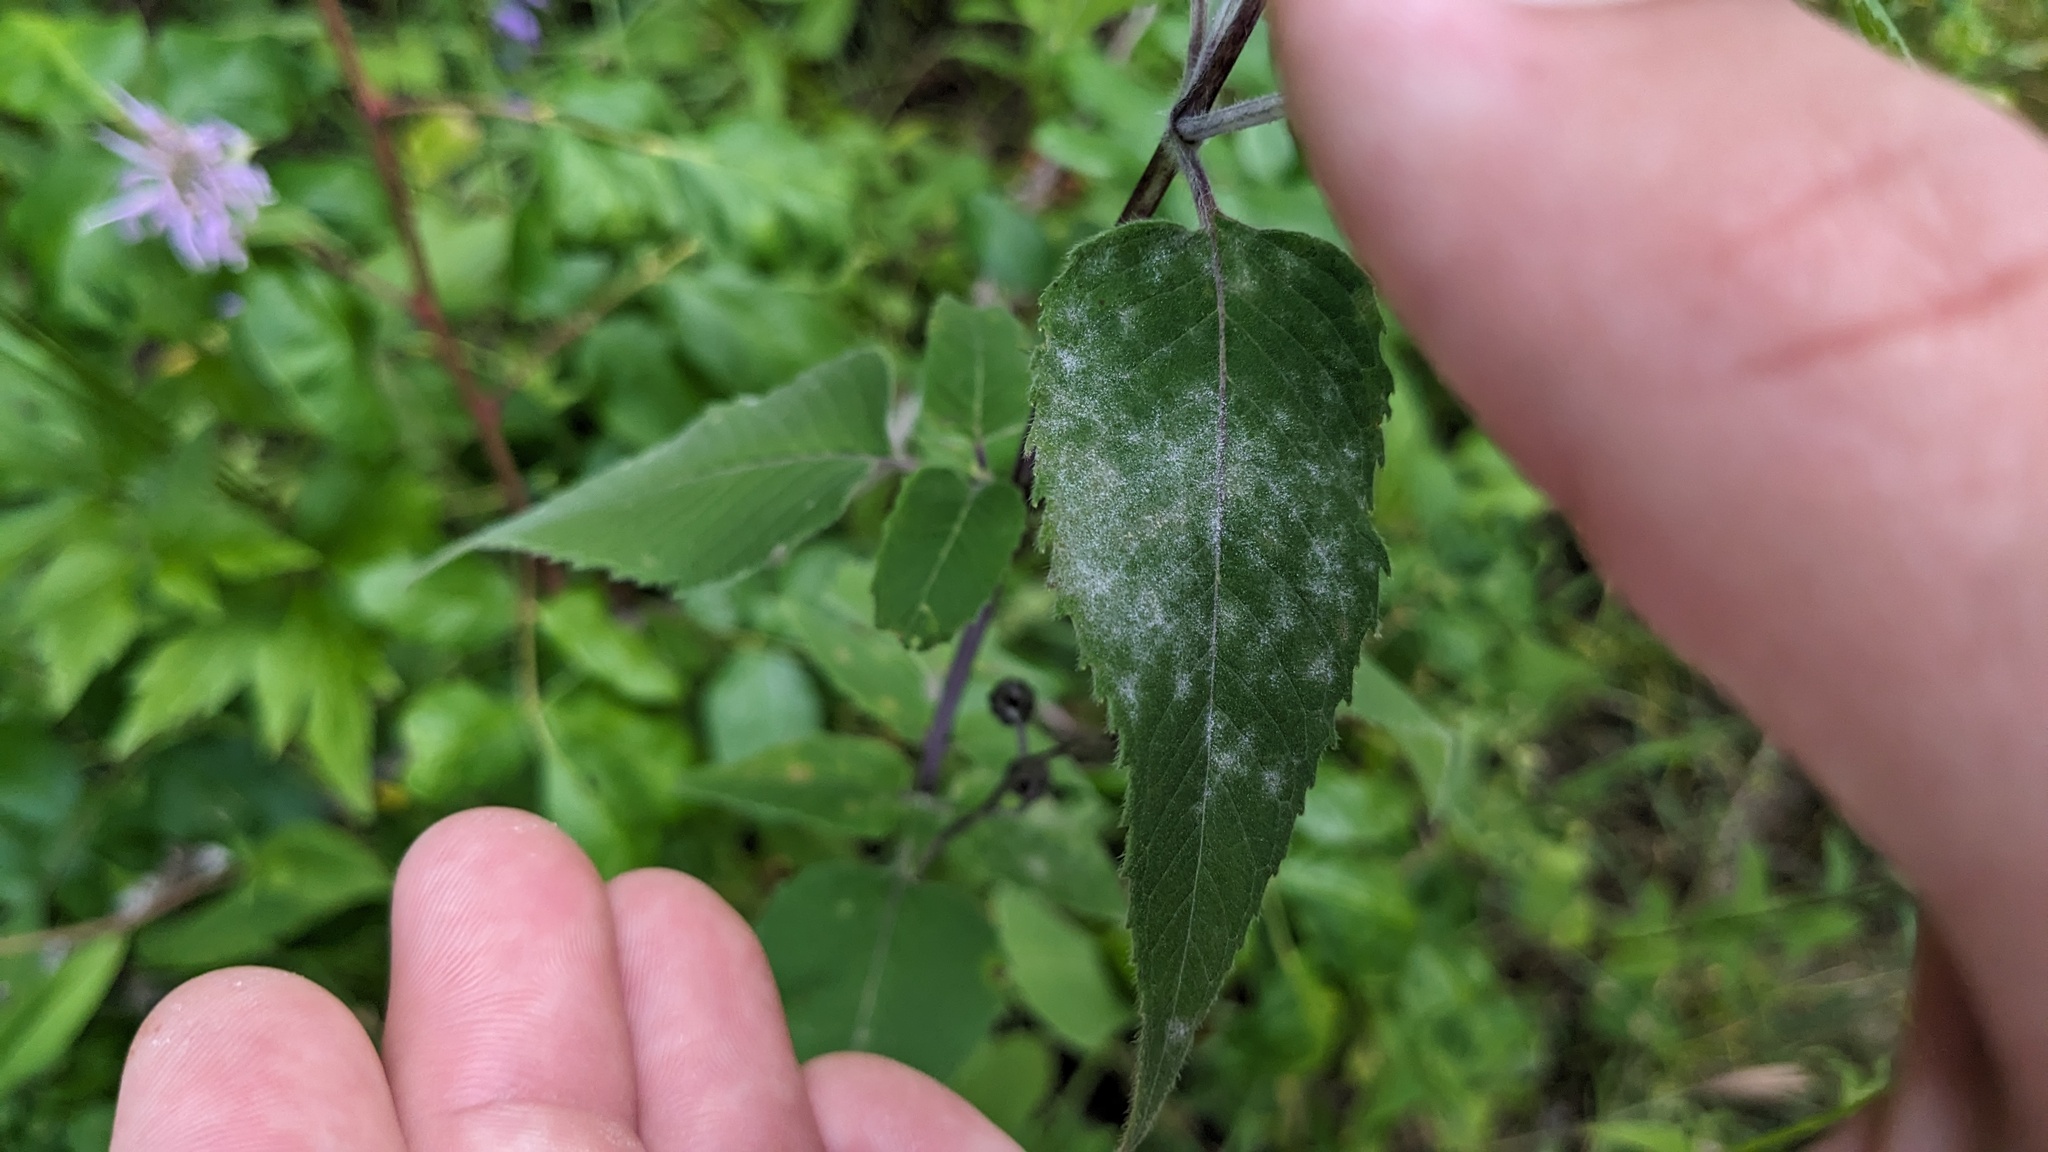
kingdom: Fungi
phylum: Ascomycota
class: Leotiomycetes
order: Helotiales
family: Erysiphaceae
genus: Golovinomyces
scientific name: Golovinomyces monardae
